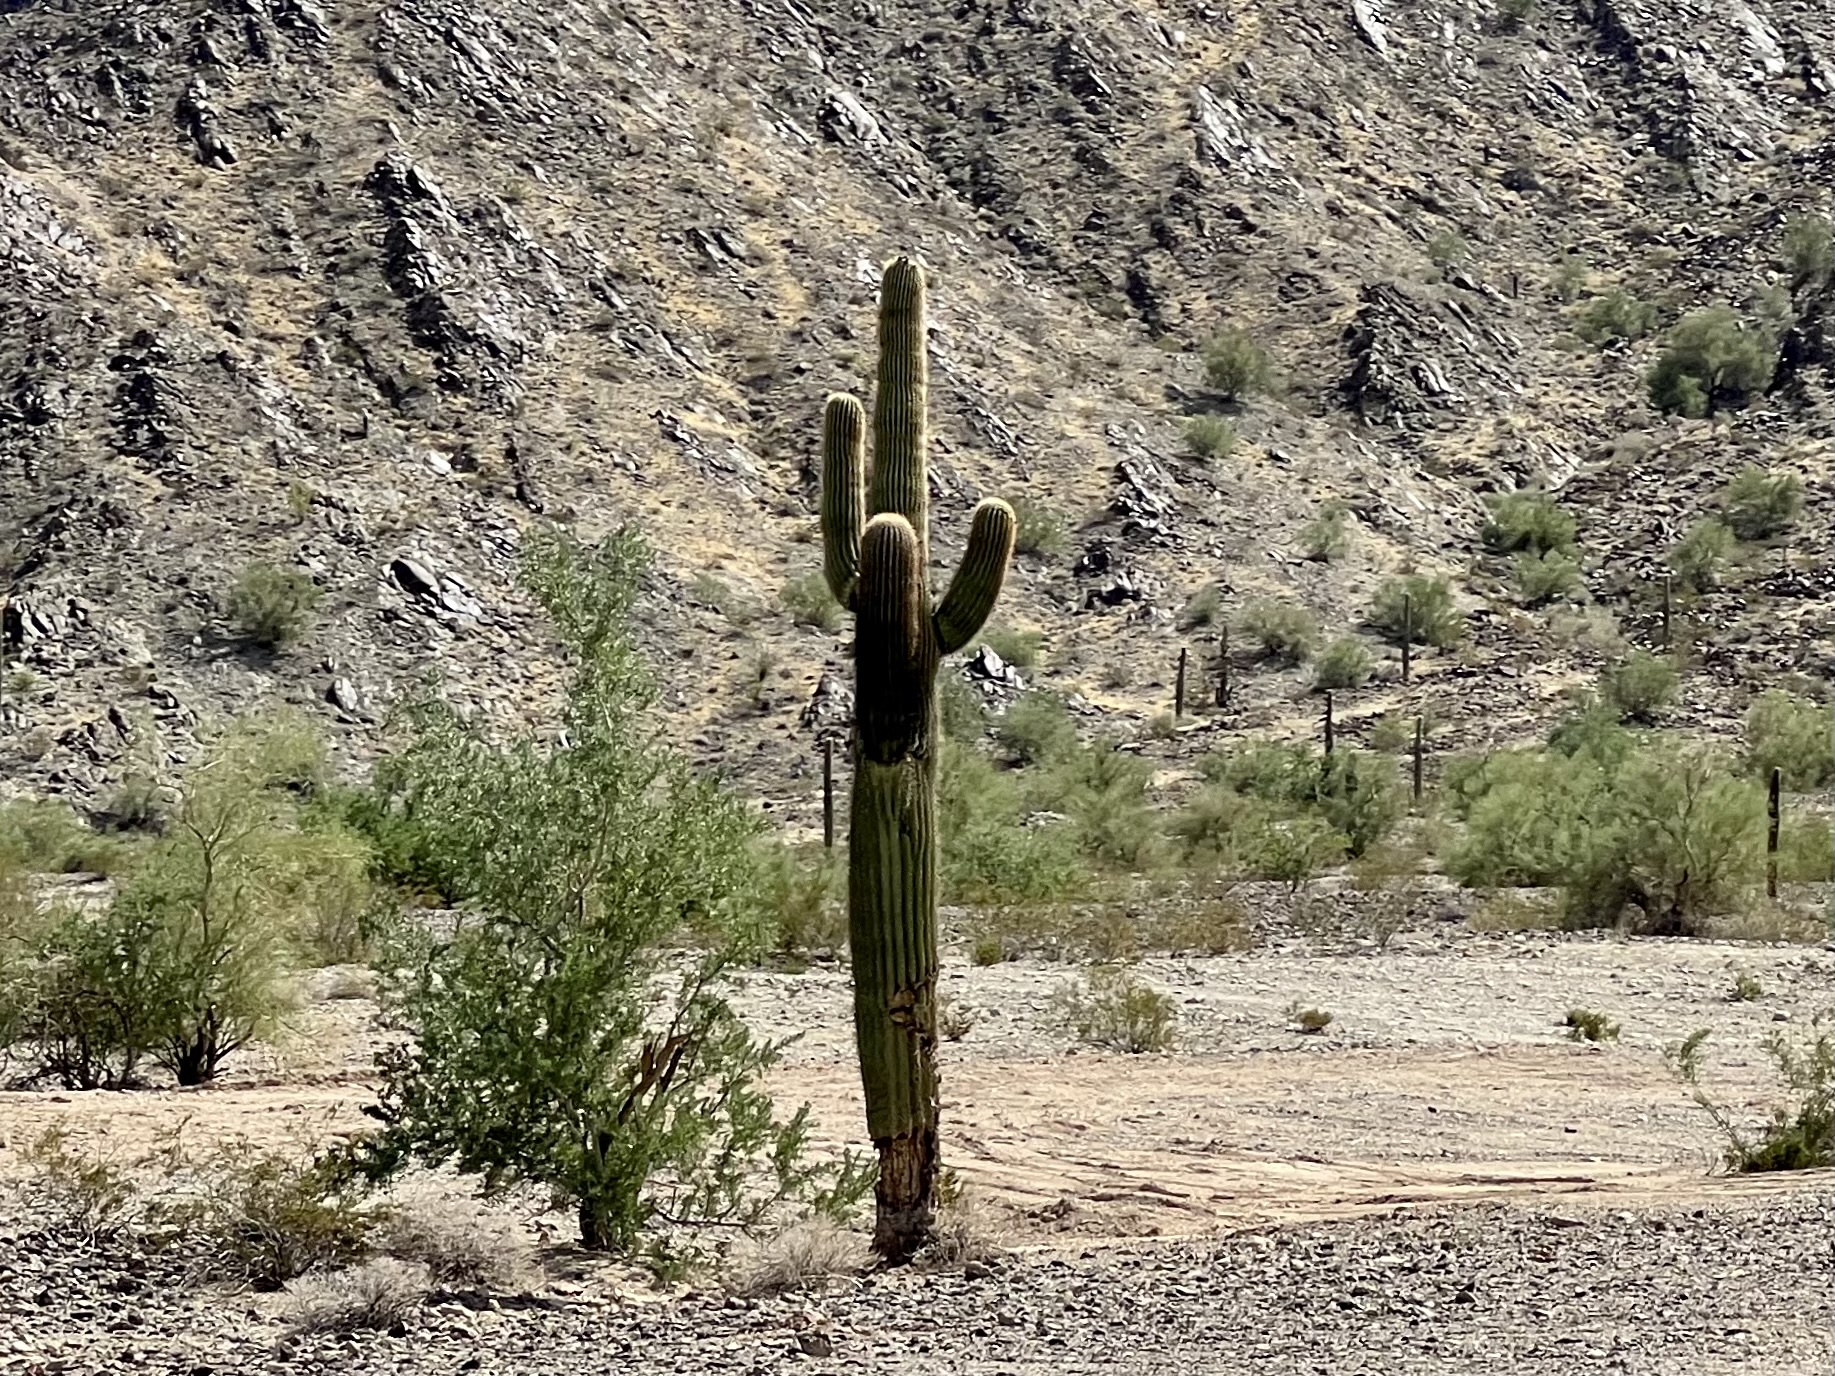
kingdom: Plantae
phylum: Tracheophyta
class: Magnoliopsida
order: Caryophyllales
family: Cactaceae
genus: Carnegiea
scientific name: Carnegiea gigantea
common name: Saguaro
